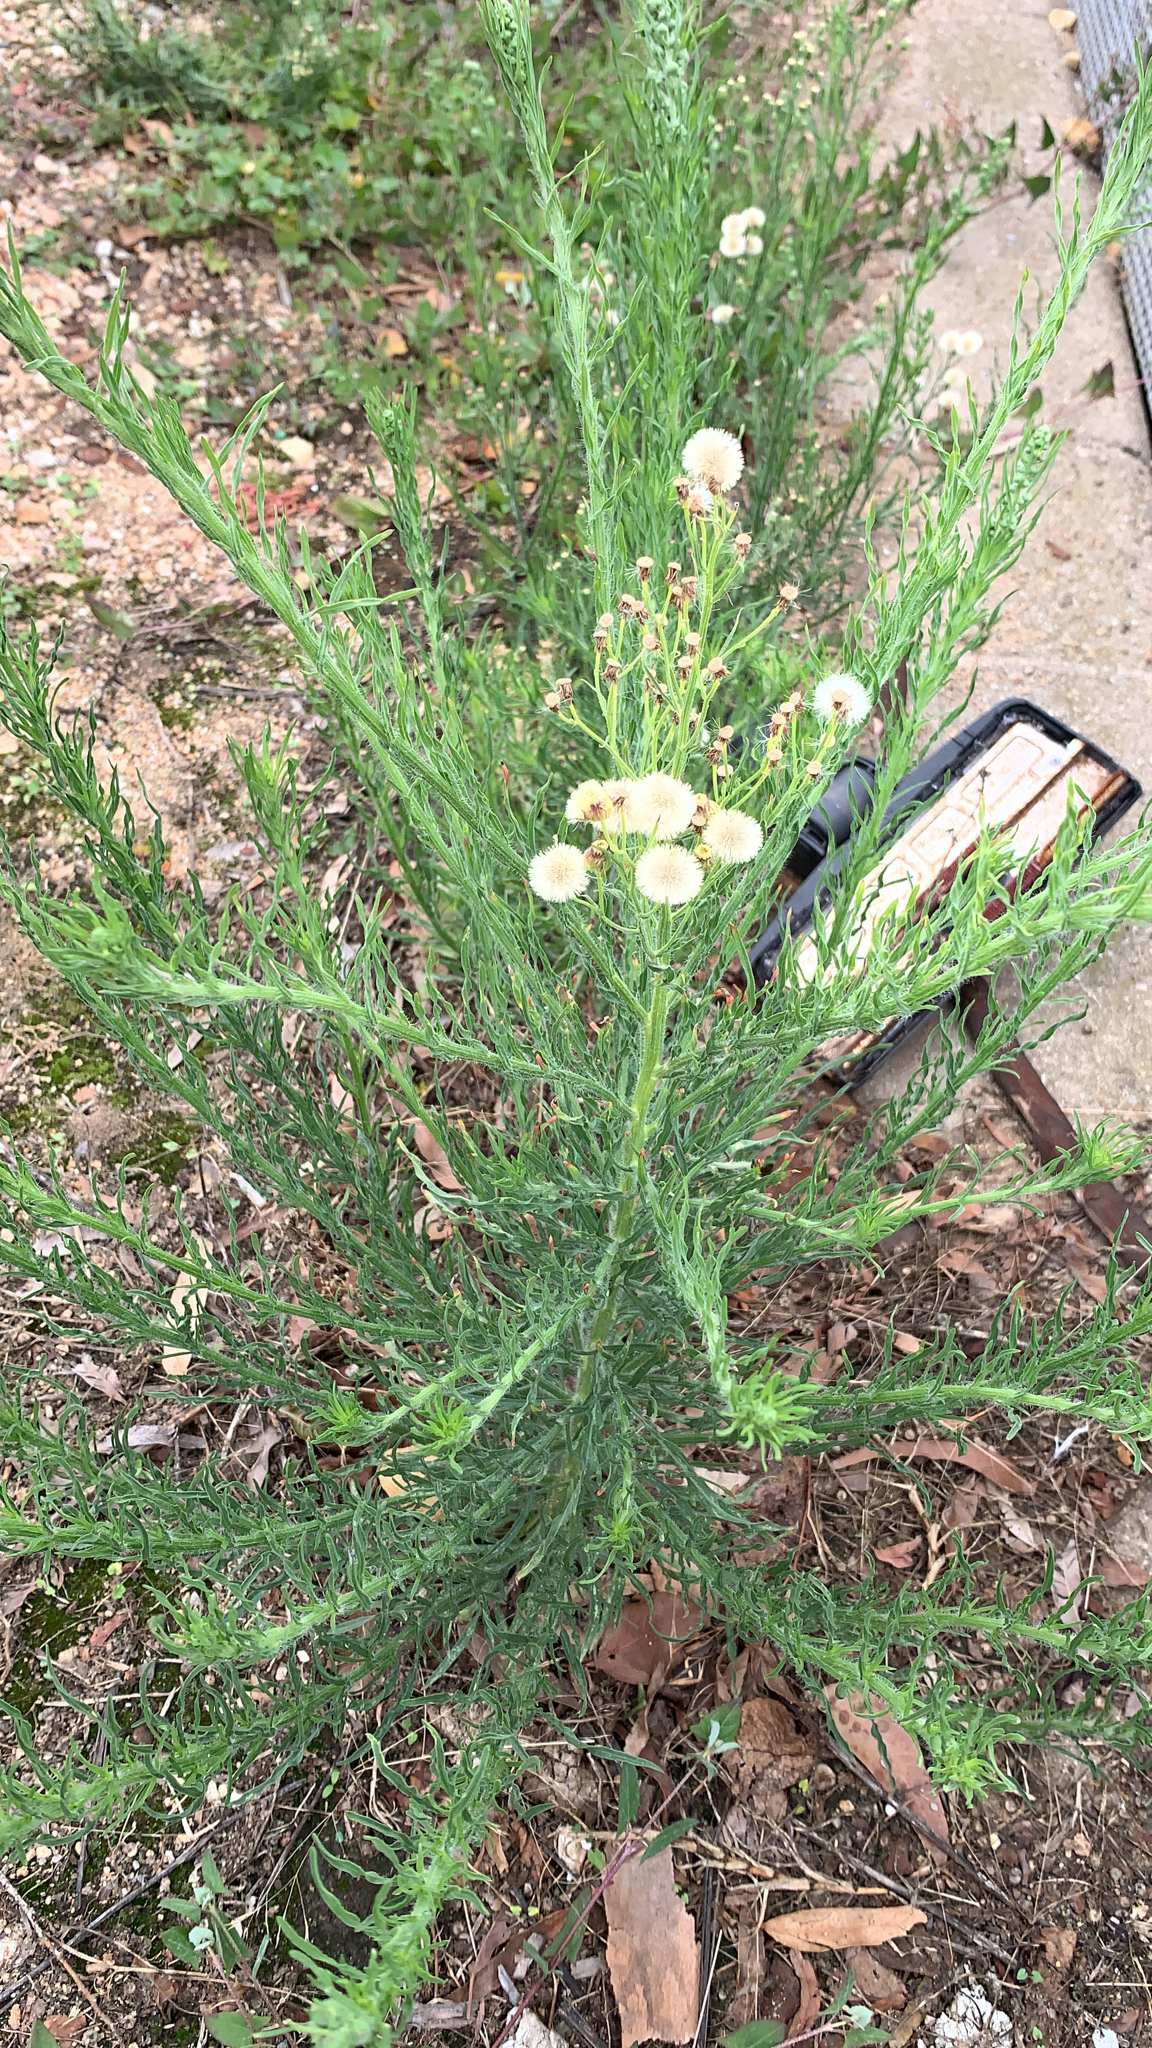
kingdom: Plantae
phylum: Tracheophyta
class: Magnoliopsida
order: Asterales
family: Asteraceae
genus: Erigeron
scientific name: Erigeron bonariensis
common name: Argentine fleabane
